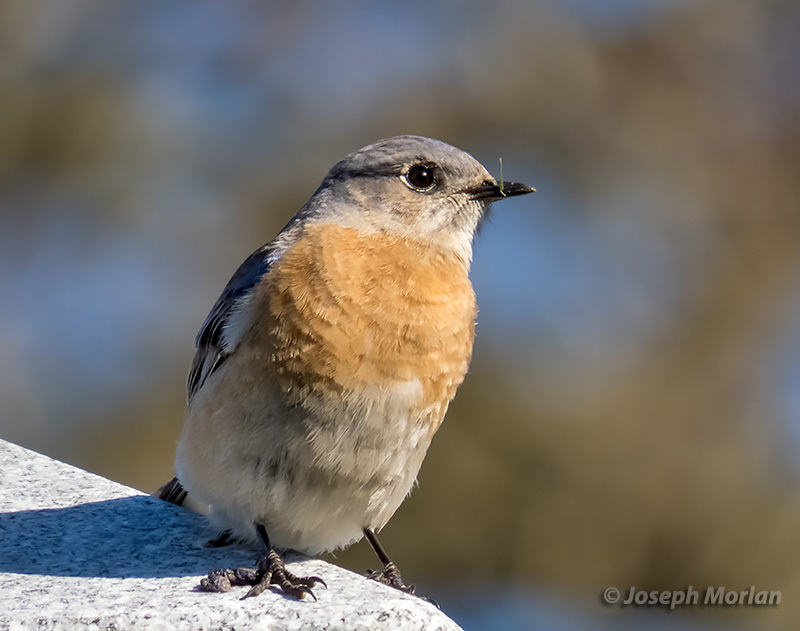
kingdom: Animalia
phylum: Chordata
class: Aves
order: Passeriformes
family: Turdidae
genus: Sialia
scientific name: Sialia mexicana
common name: Western bluebird
